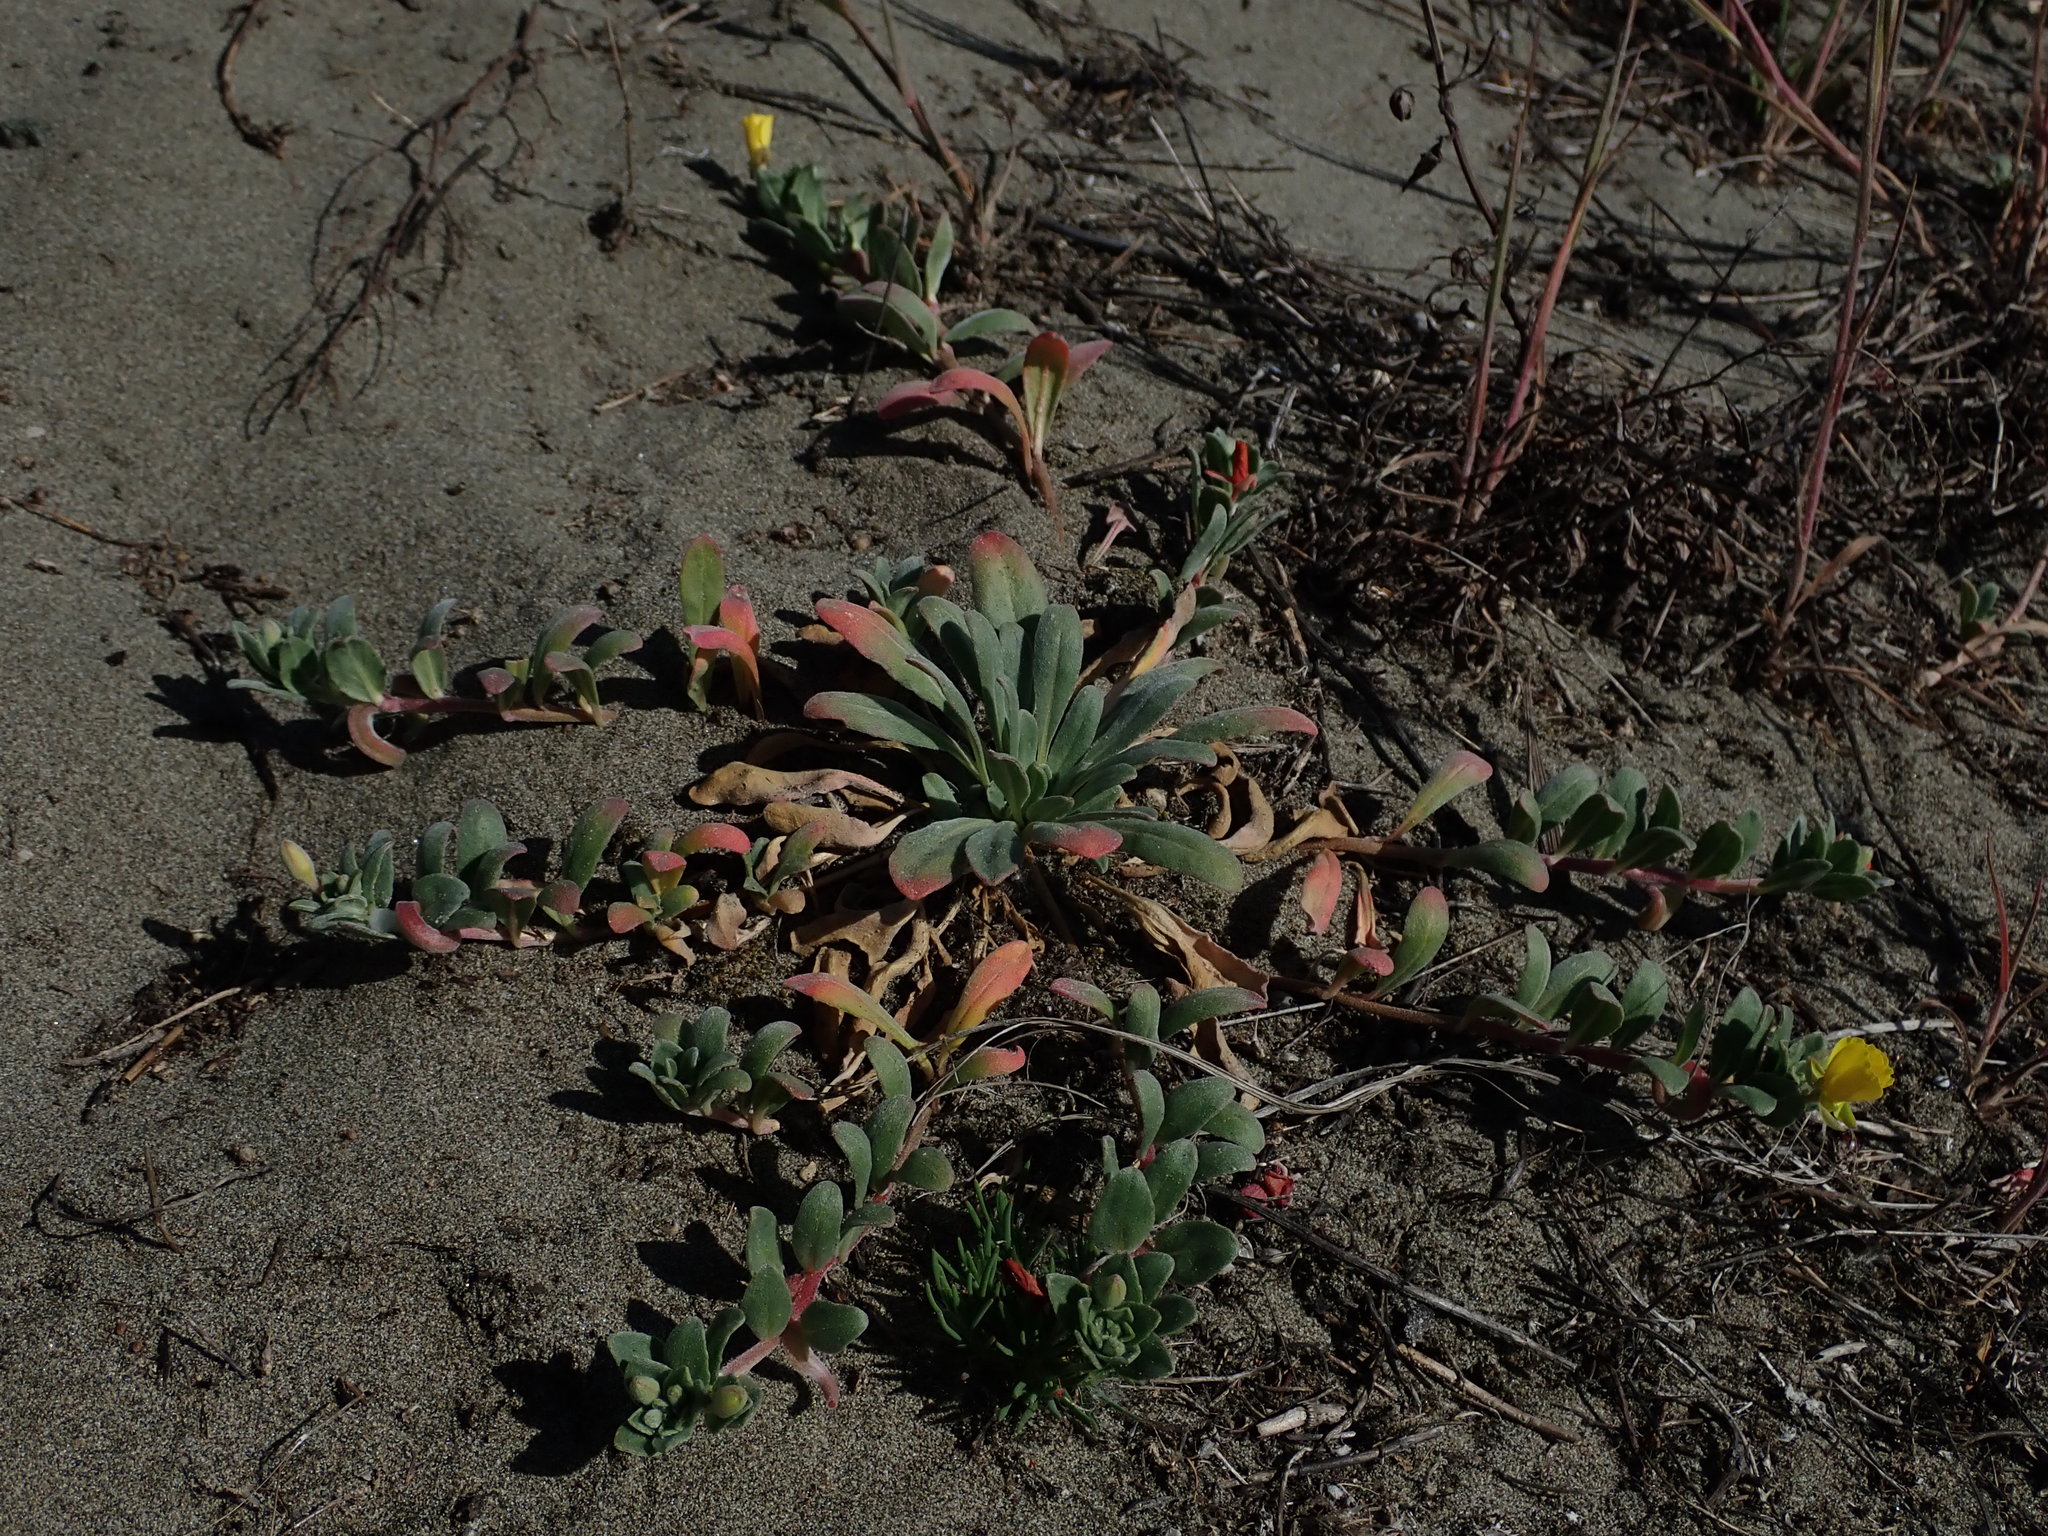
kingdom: Plantae
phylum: Tracheophyta
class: Magnoliopsida
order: Myrtales
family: Onagraceae
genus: Camissoniopsis
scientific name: Camissoniopsis cheiranthifolia
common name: Beach suncup
